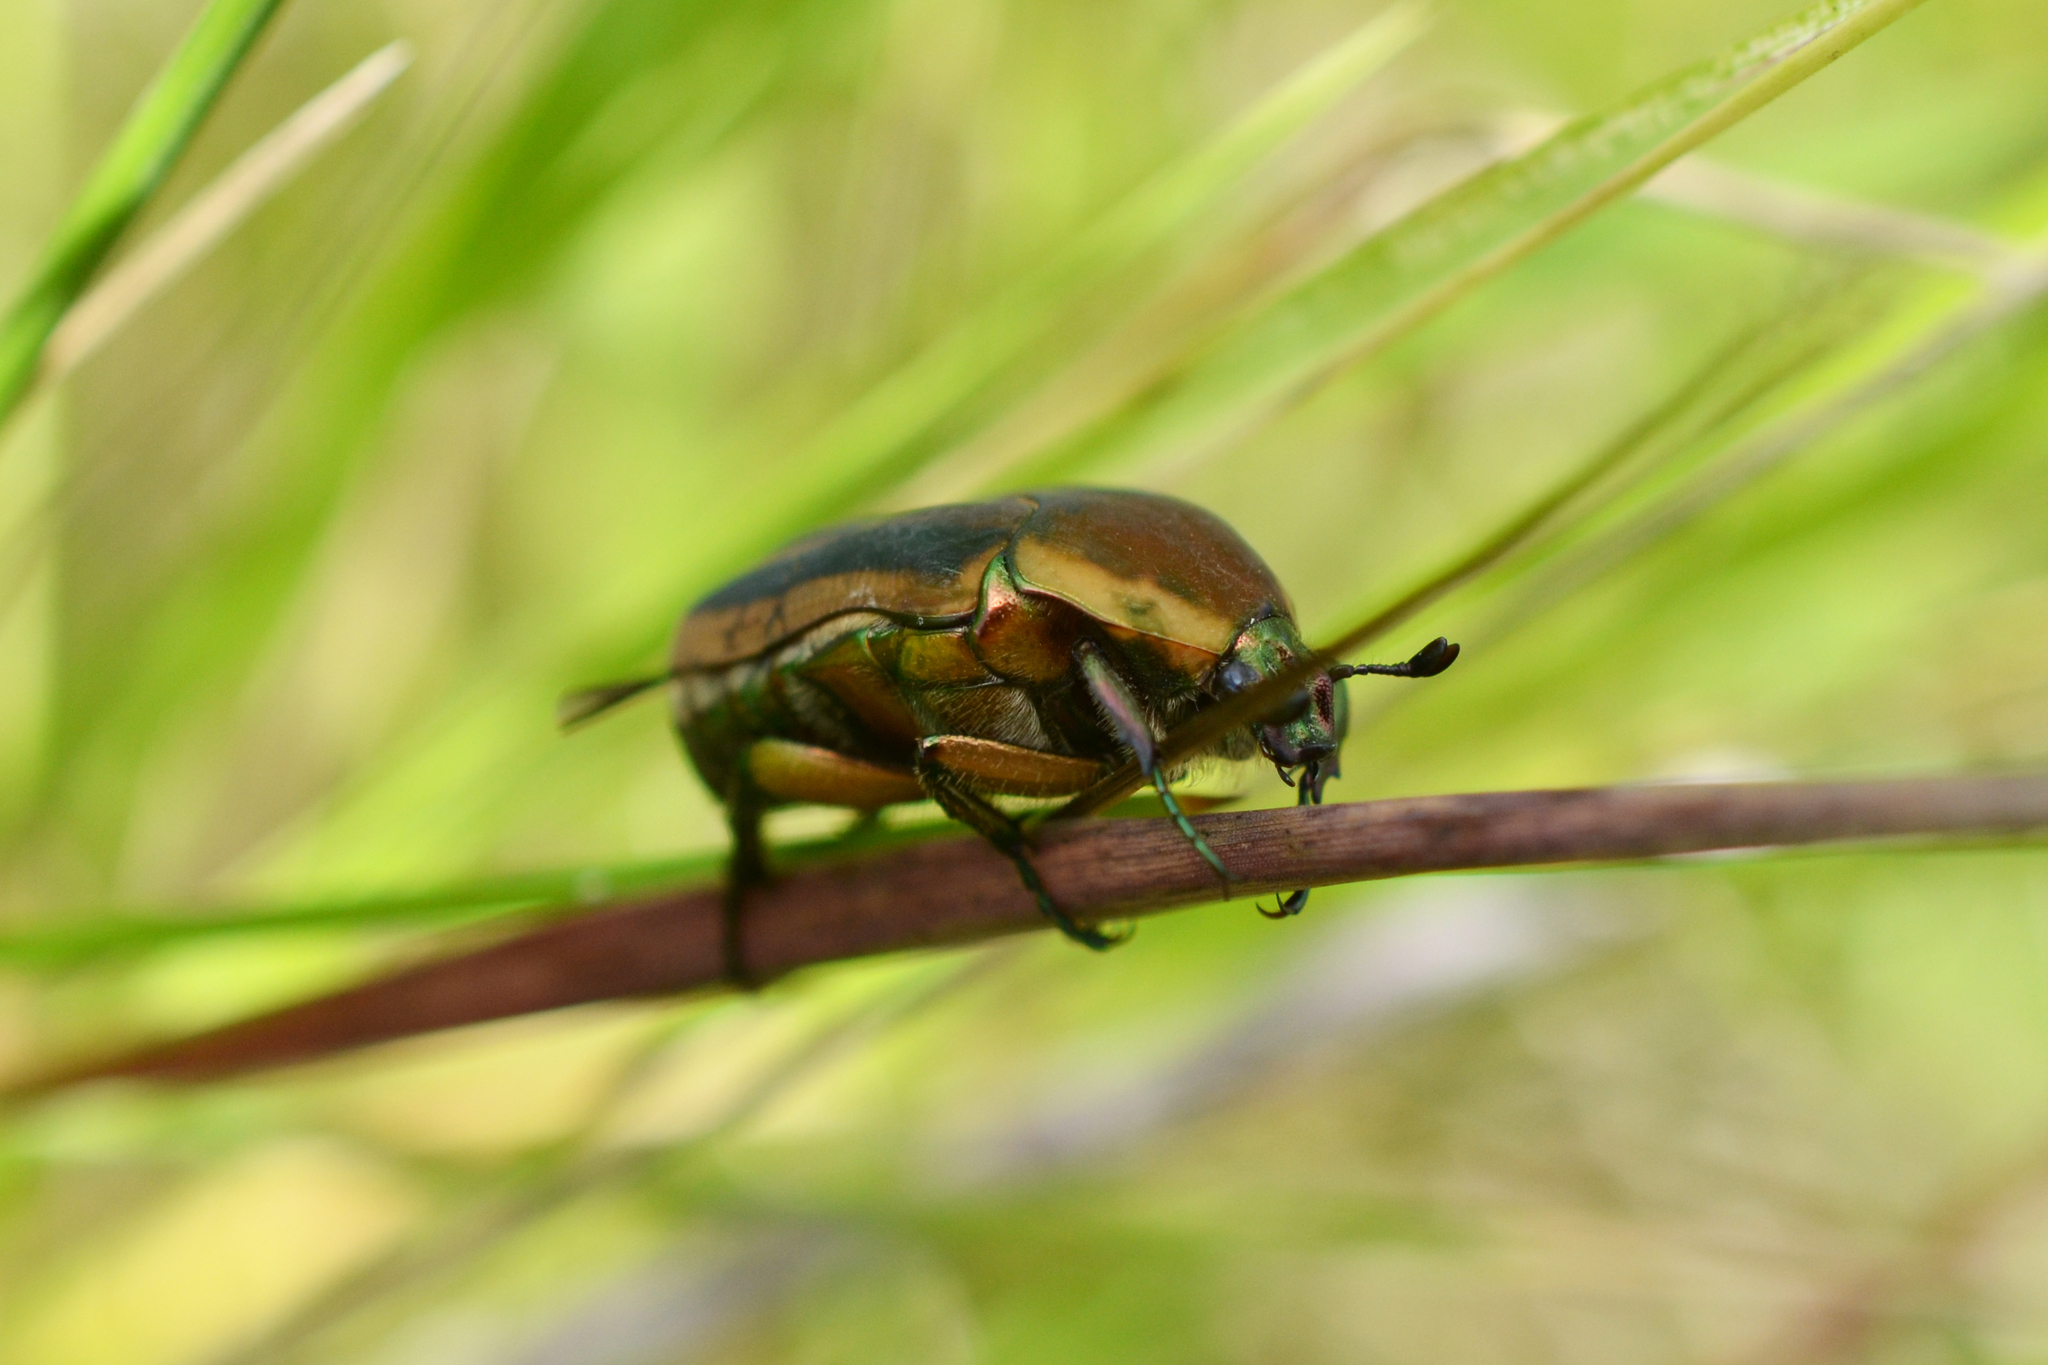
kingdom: Animalia
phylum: Arthropoda
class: Insecta
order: Coleoptera
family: Scarabaeidae
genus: Cotinis
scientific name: Cotinis nitida
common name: Common green june beetle
